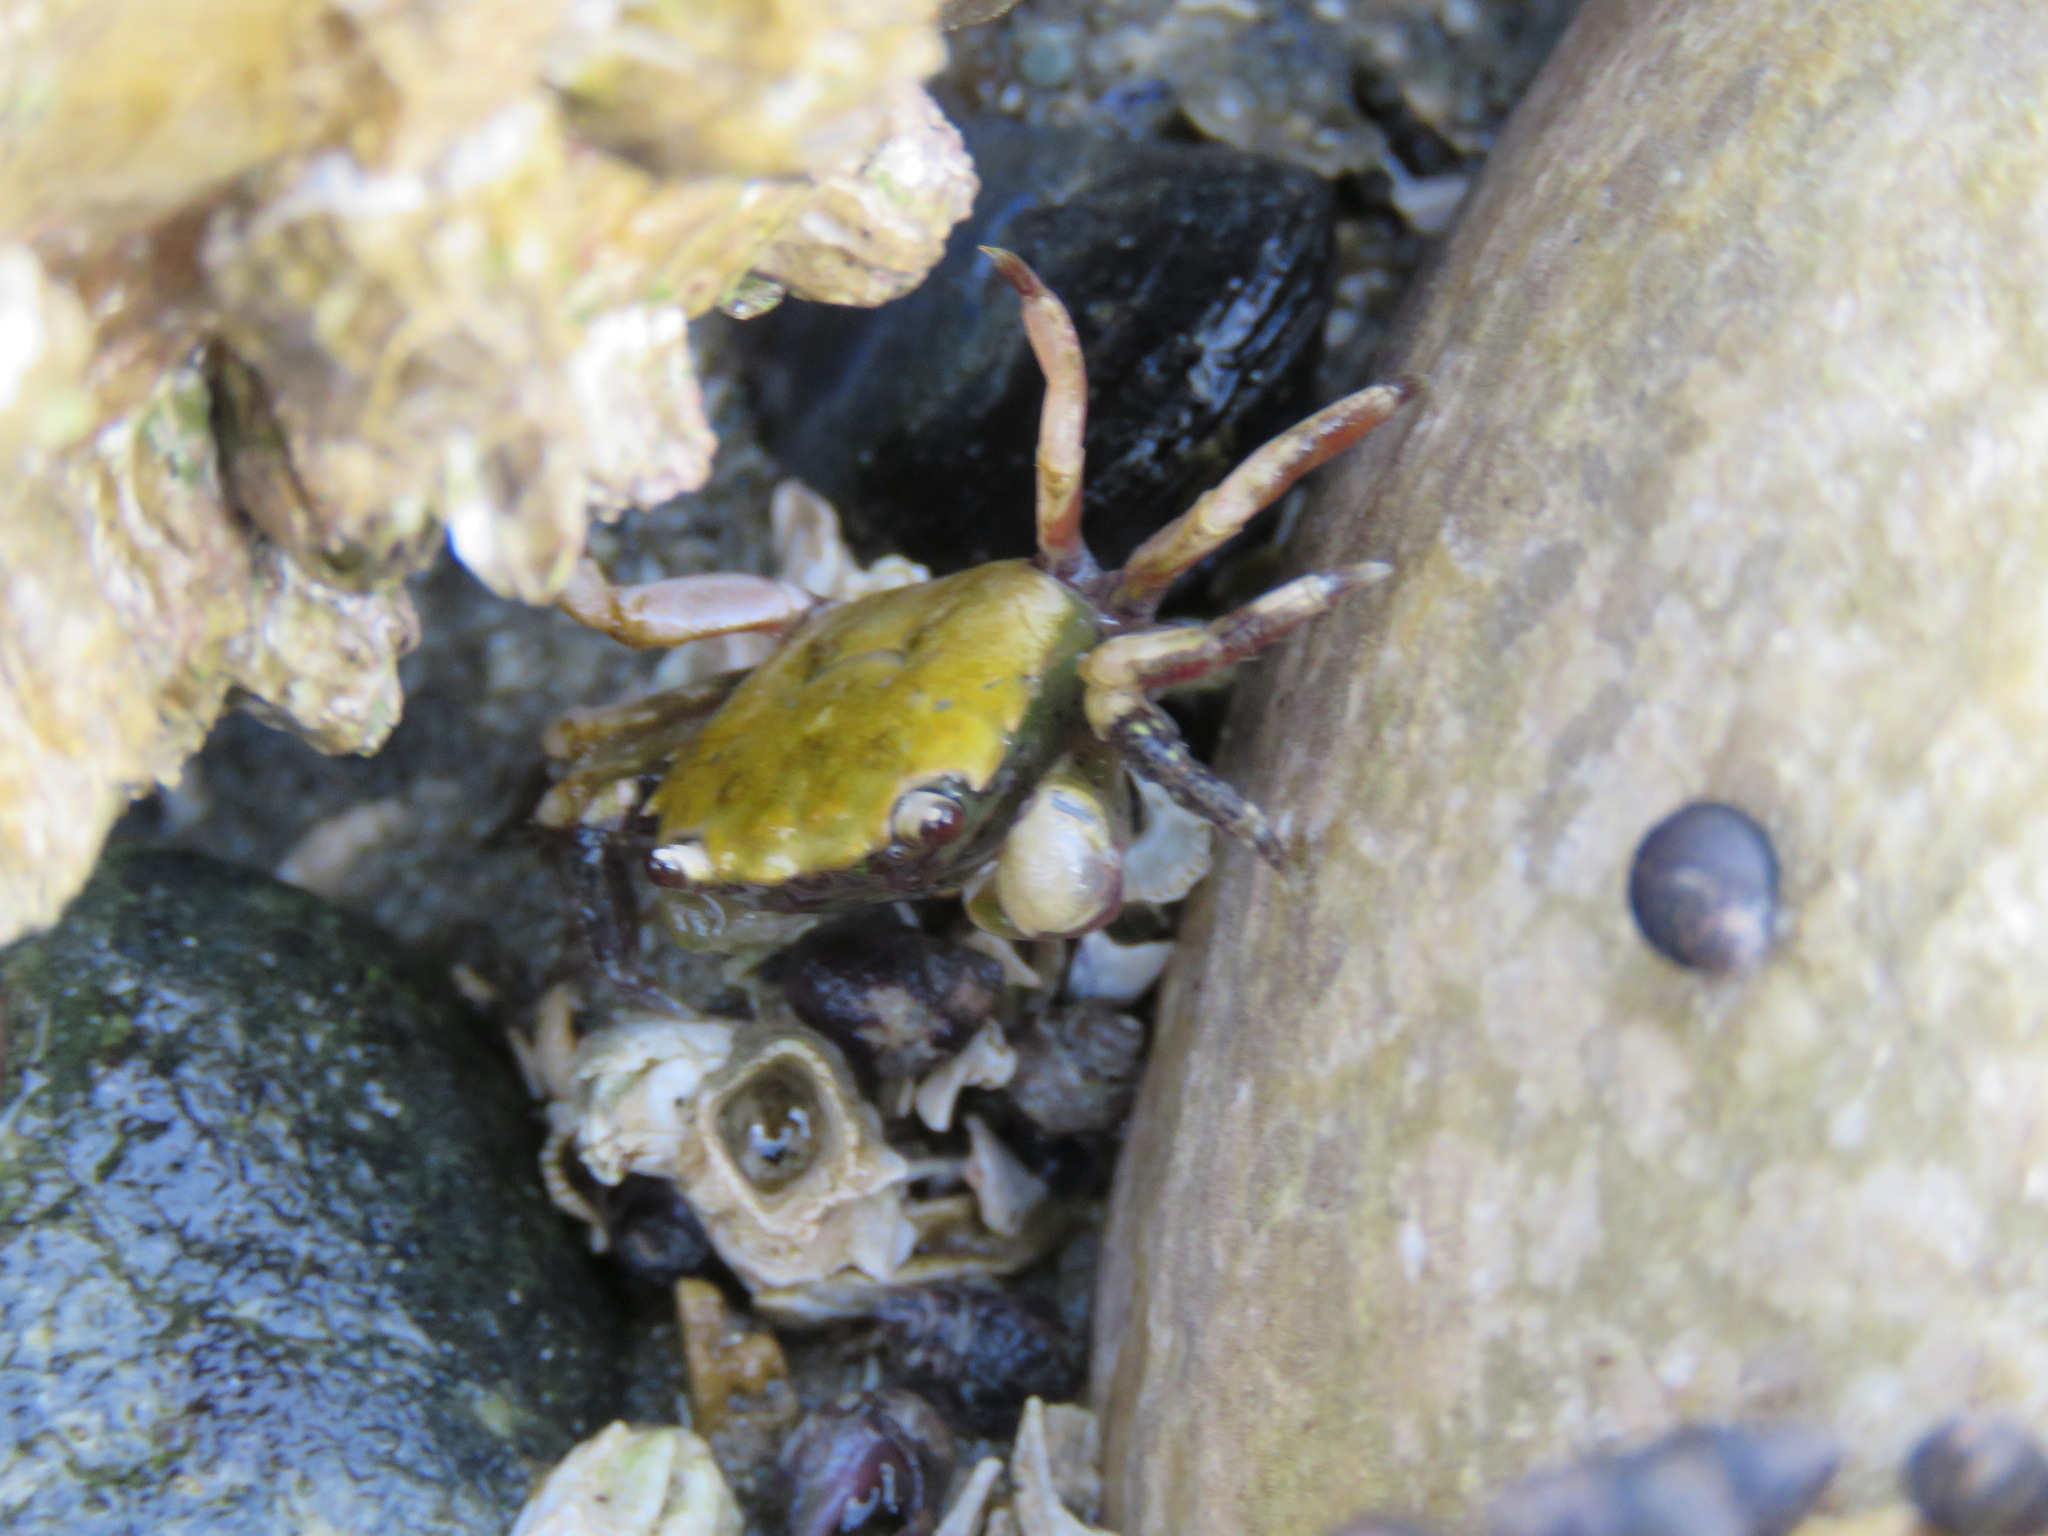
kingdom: Animalia
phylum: Arthropoda
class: Malacostraca
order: Decapoda
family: Varunidae
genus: Hemigrapsus
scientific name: Hemigrapsus oregonensis
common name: Yellow shore crab
